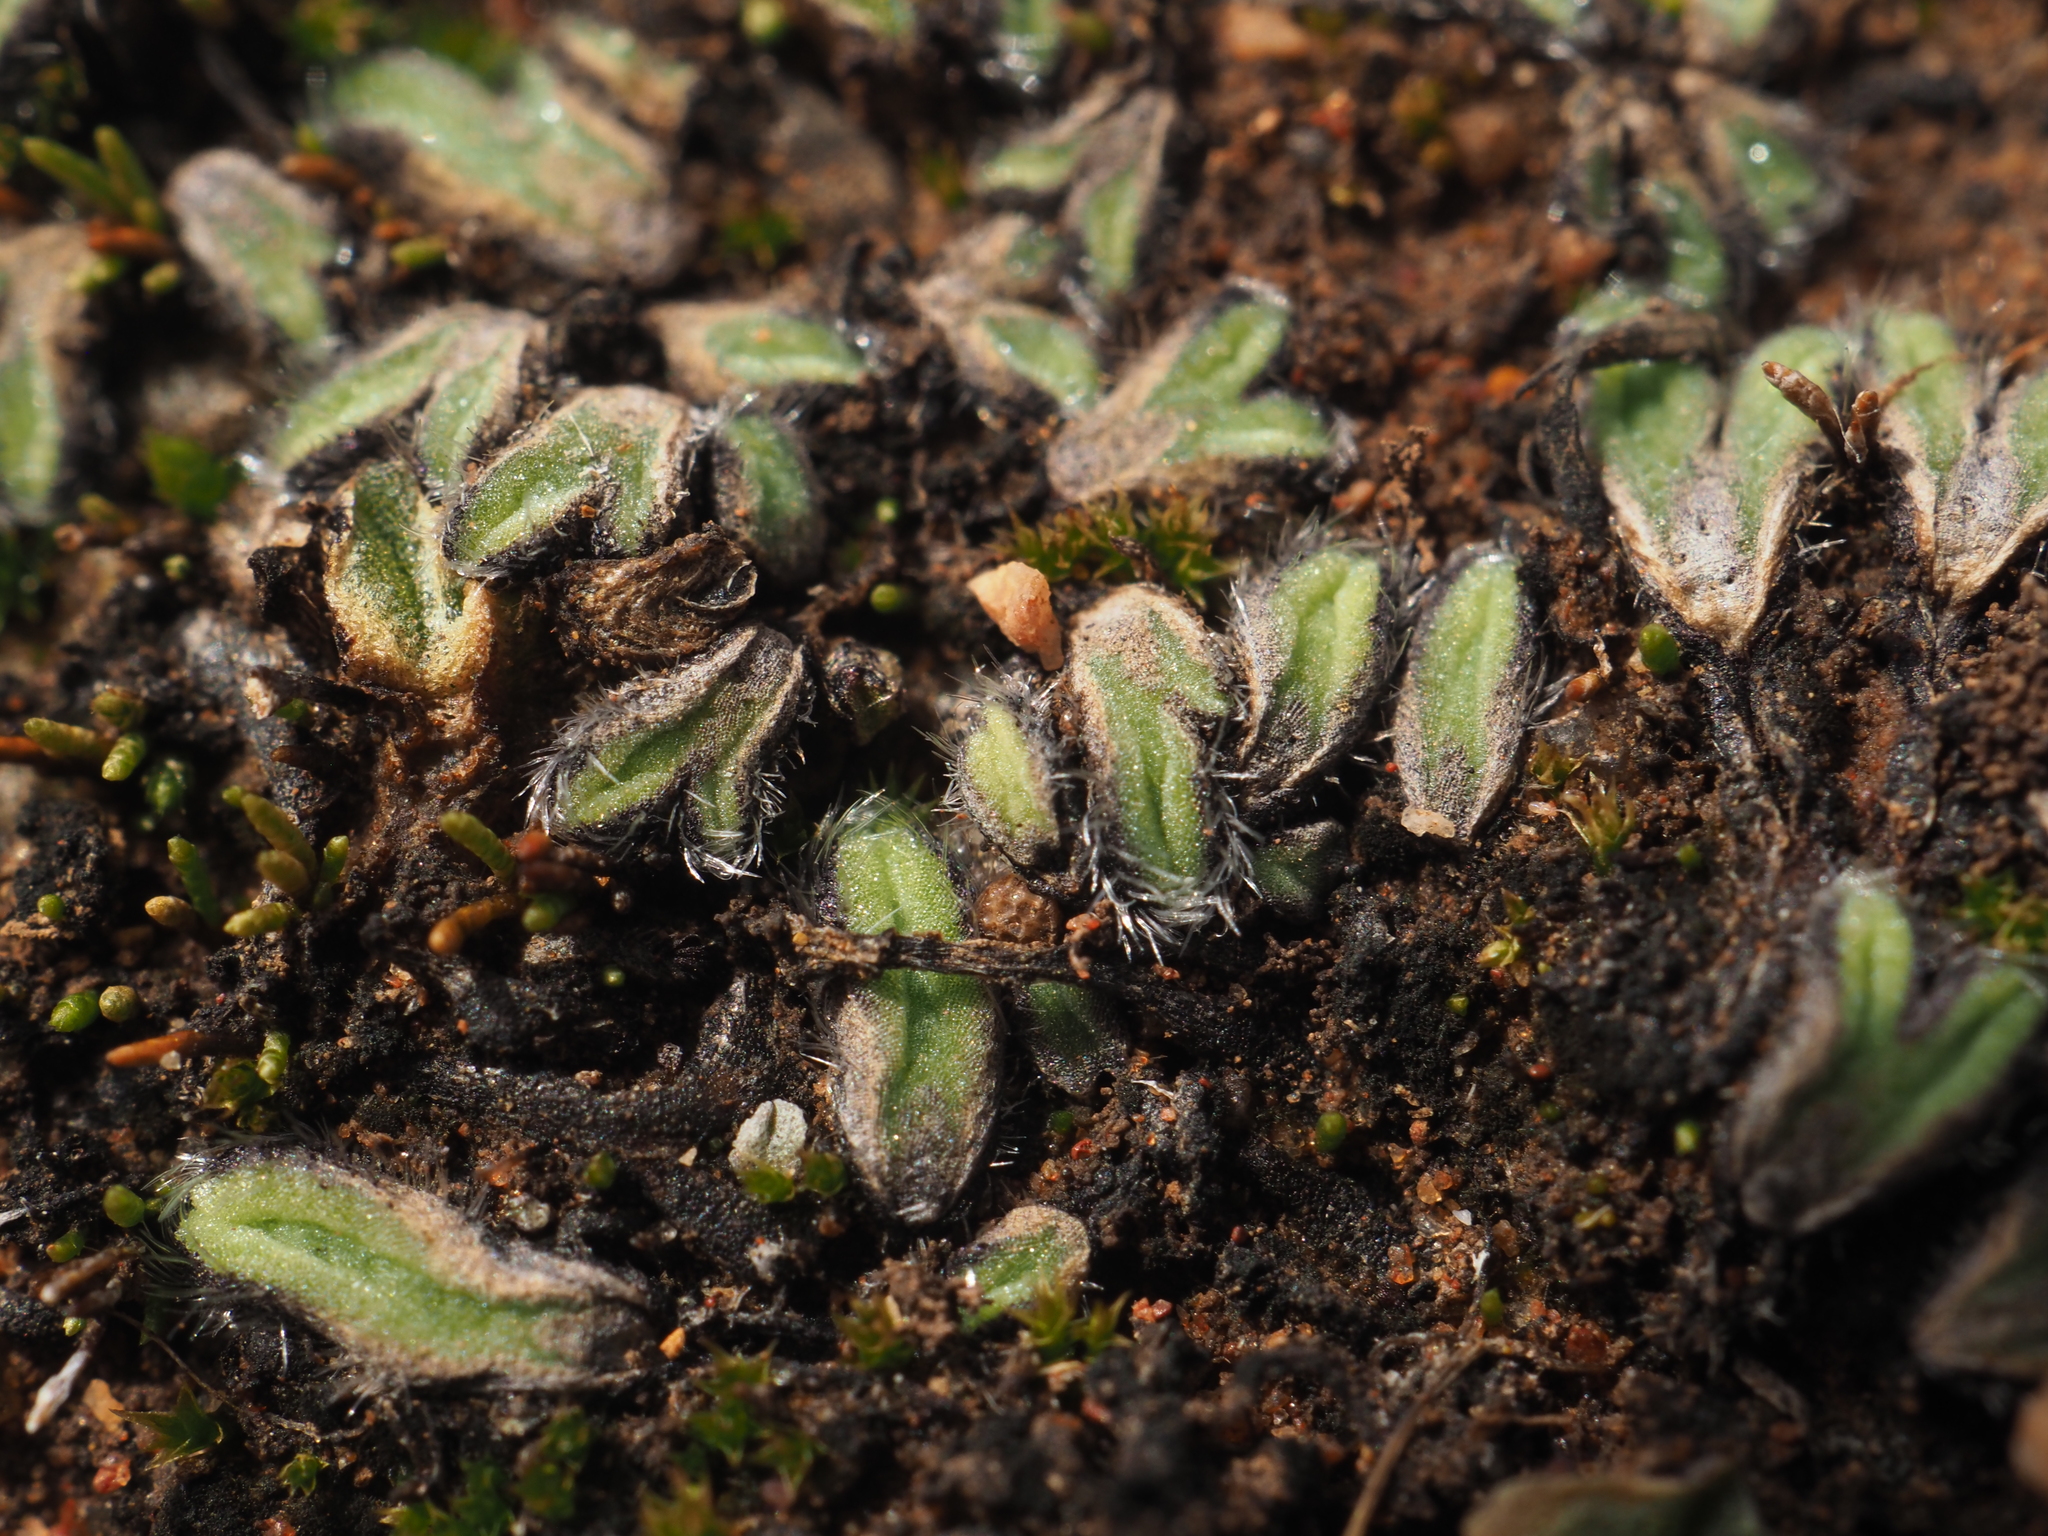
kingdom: Plantae
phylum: Marchantiophyta
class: Marchantiopsida
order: Marchantiales
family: Ricciaceae
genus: Riccia
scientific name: Riccia crinita
